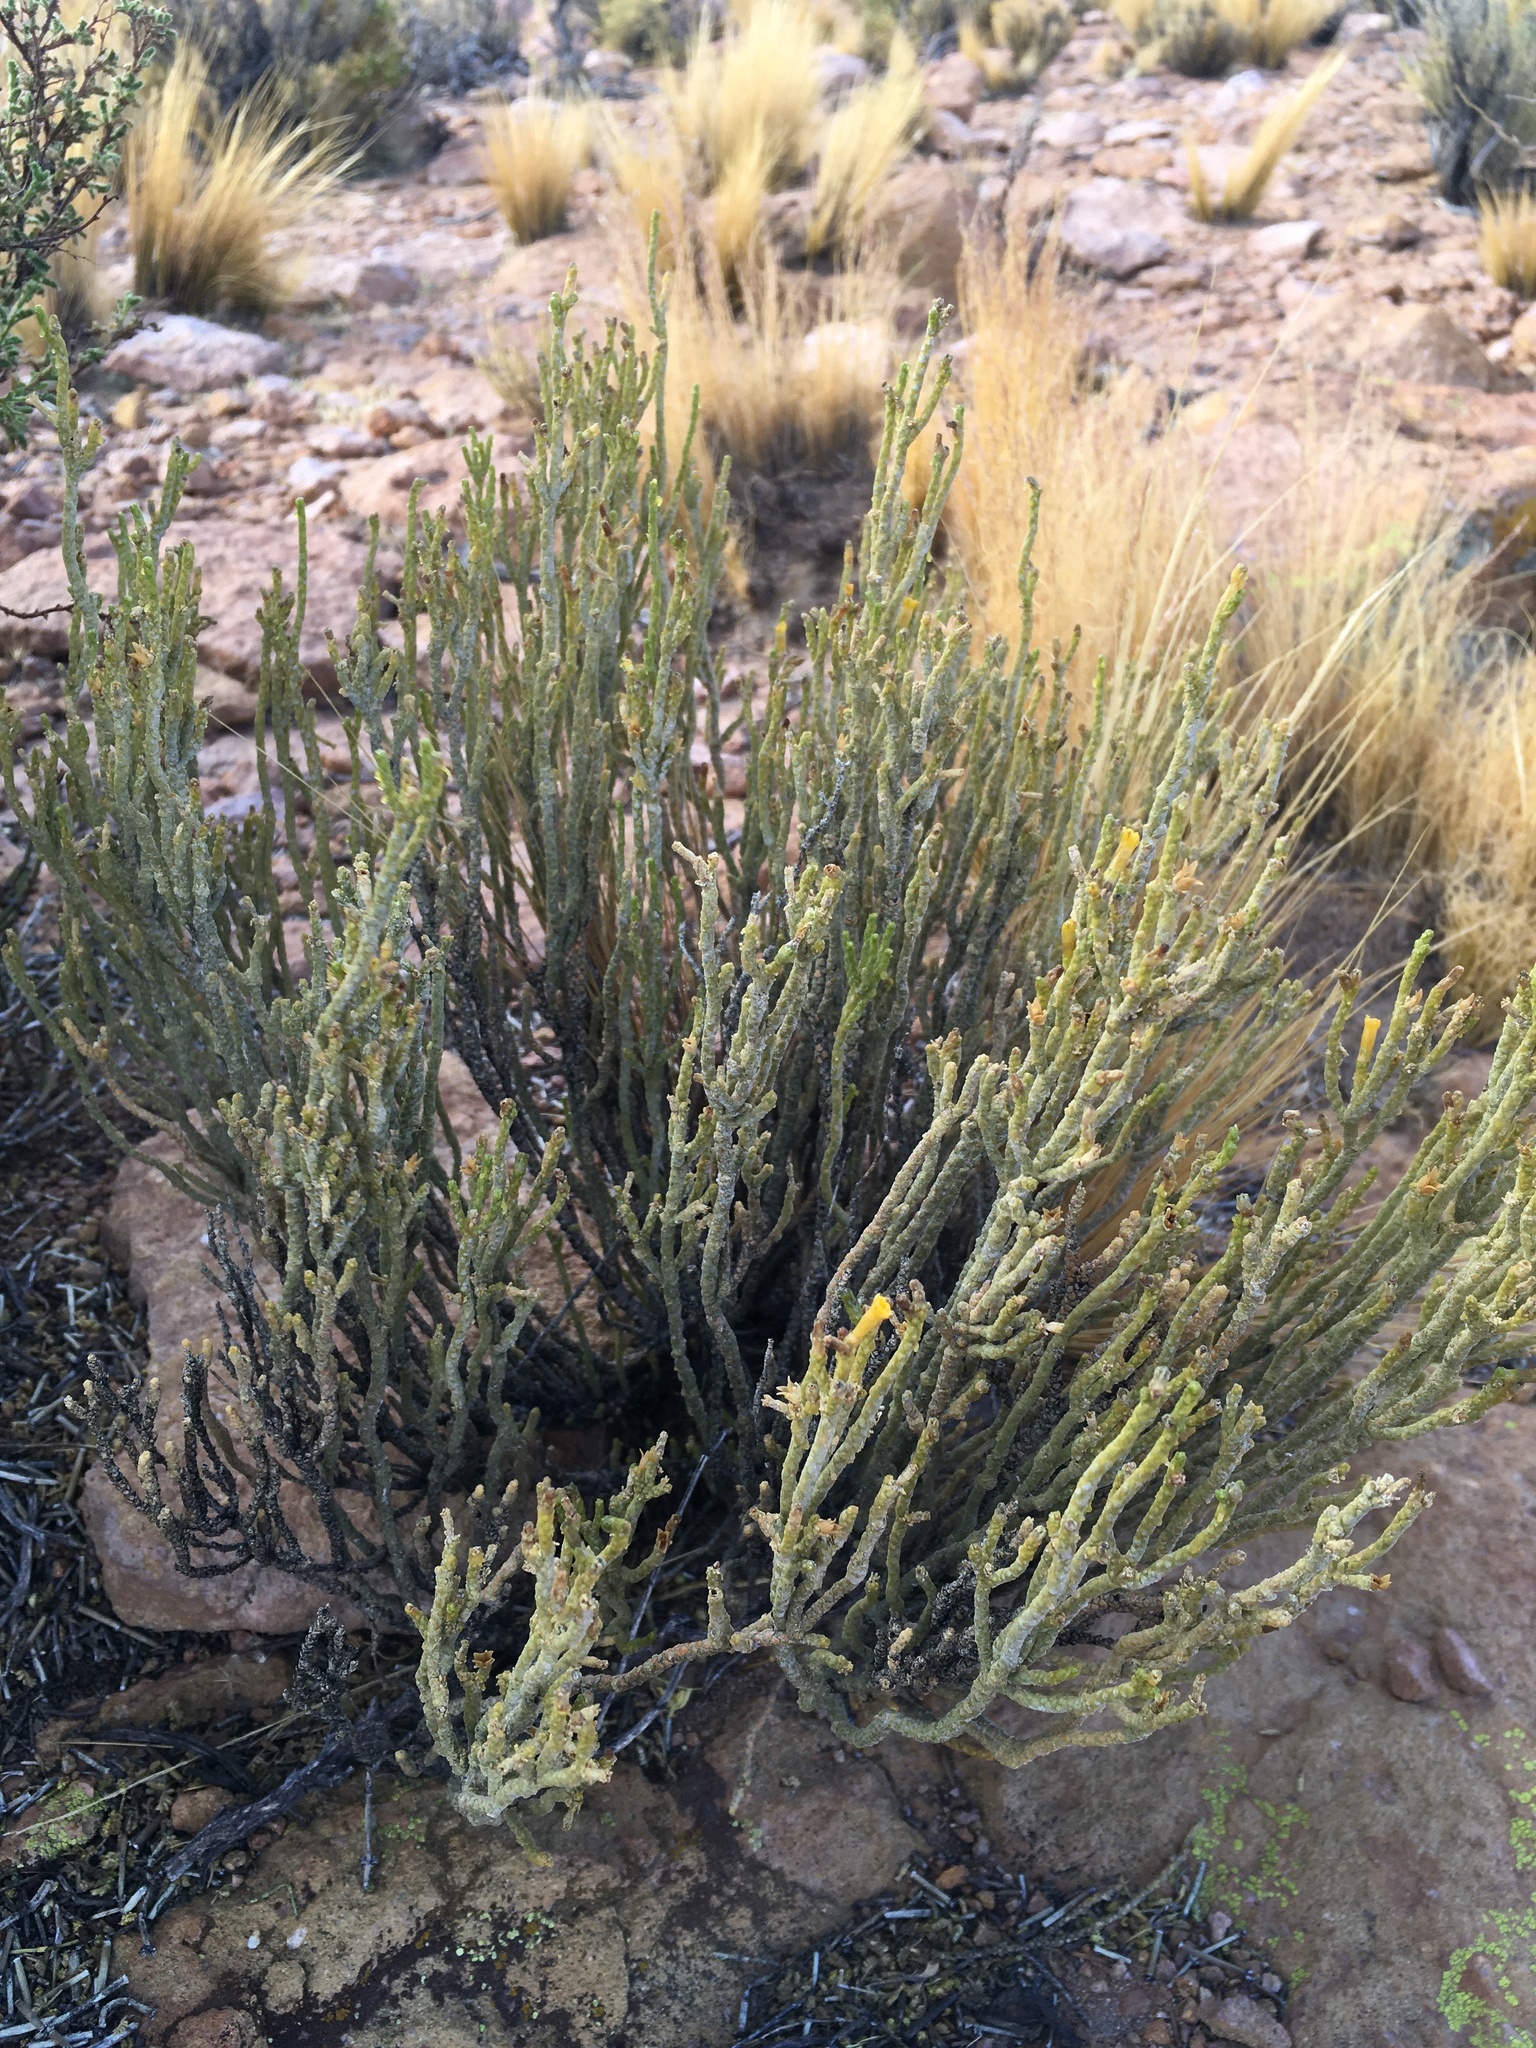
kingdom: Plantae
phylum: Tracheophyta
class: Magnoliopsida
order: Solanales
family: Solanaceae
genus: Fabiana
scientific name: Fabiana squamata
